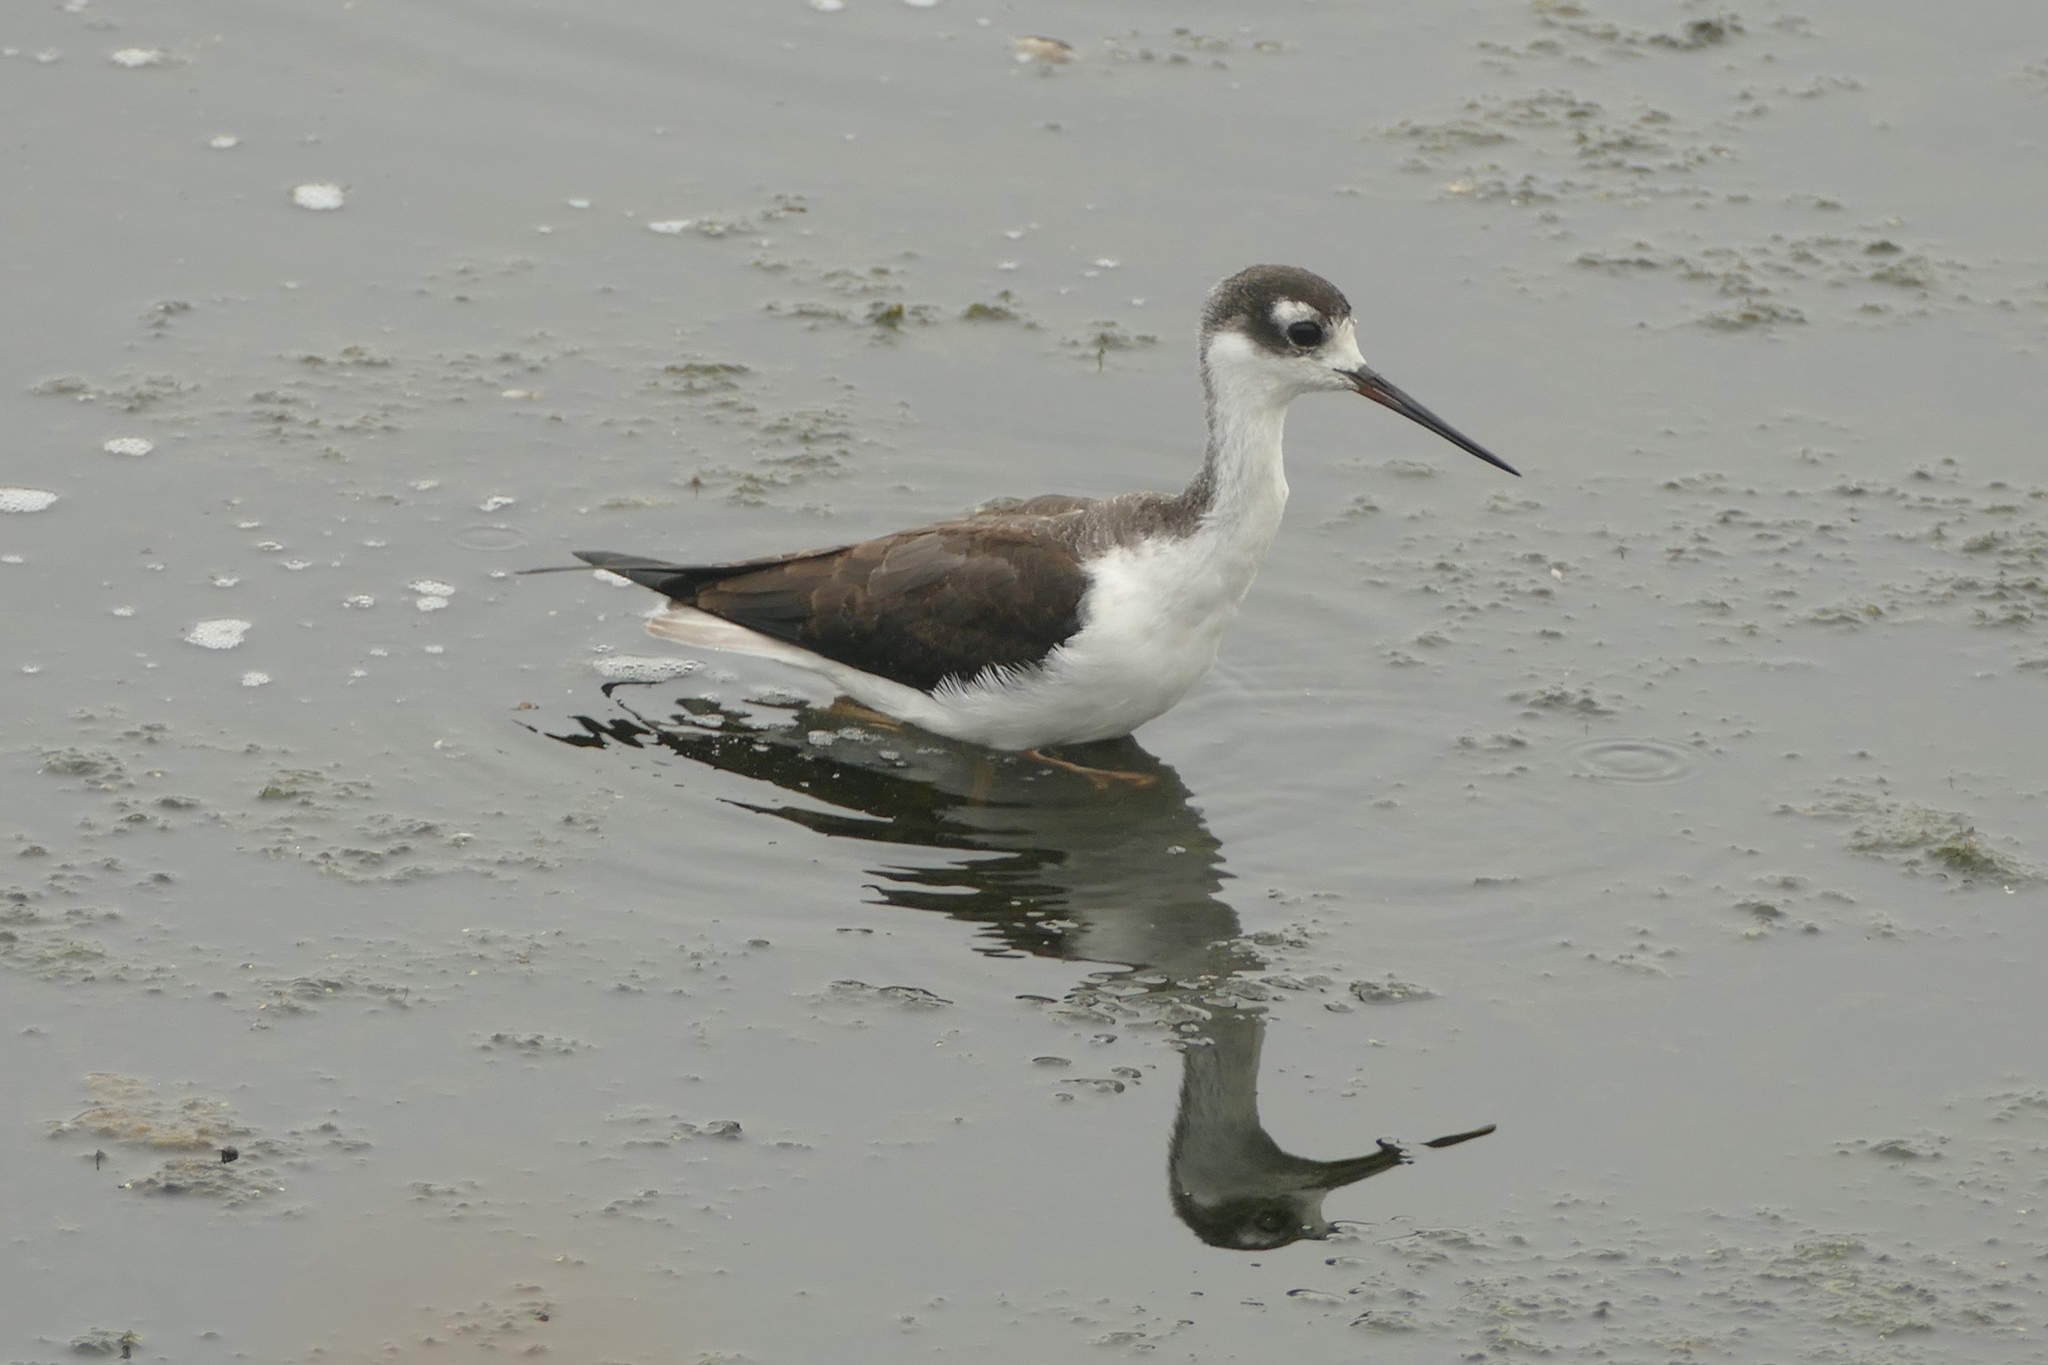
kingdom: Animalia
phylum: Chordata
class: Aves
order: Charadriiformes
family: Recurvirostridae
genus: Himantopus
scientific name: Himantopus mexicanus
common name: Black-necked stilt
